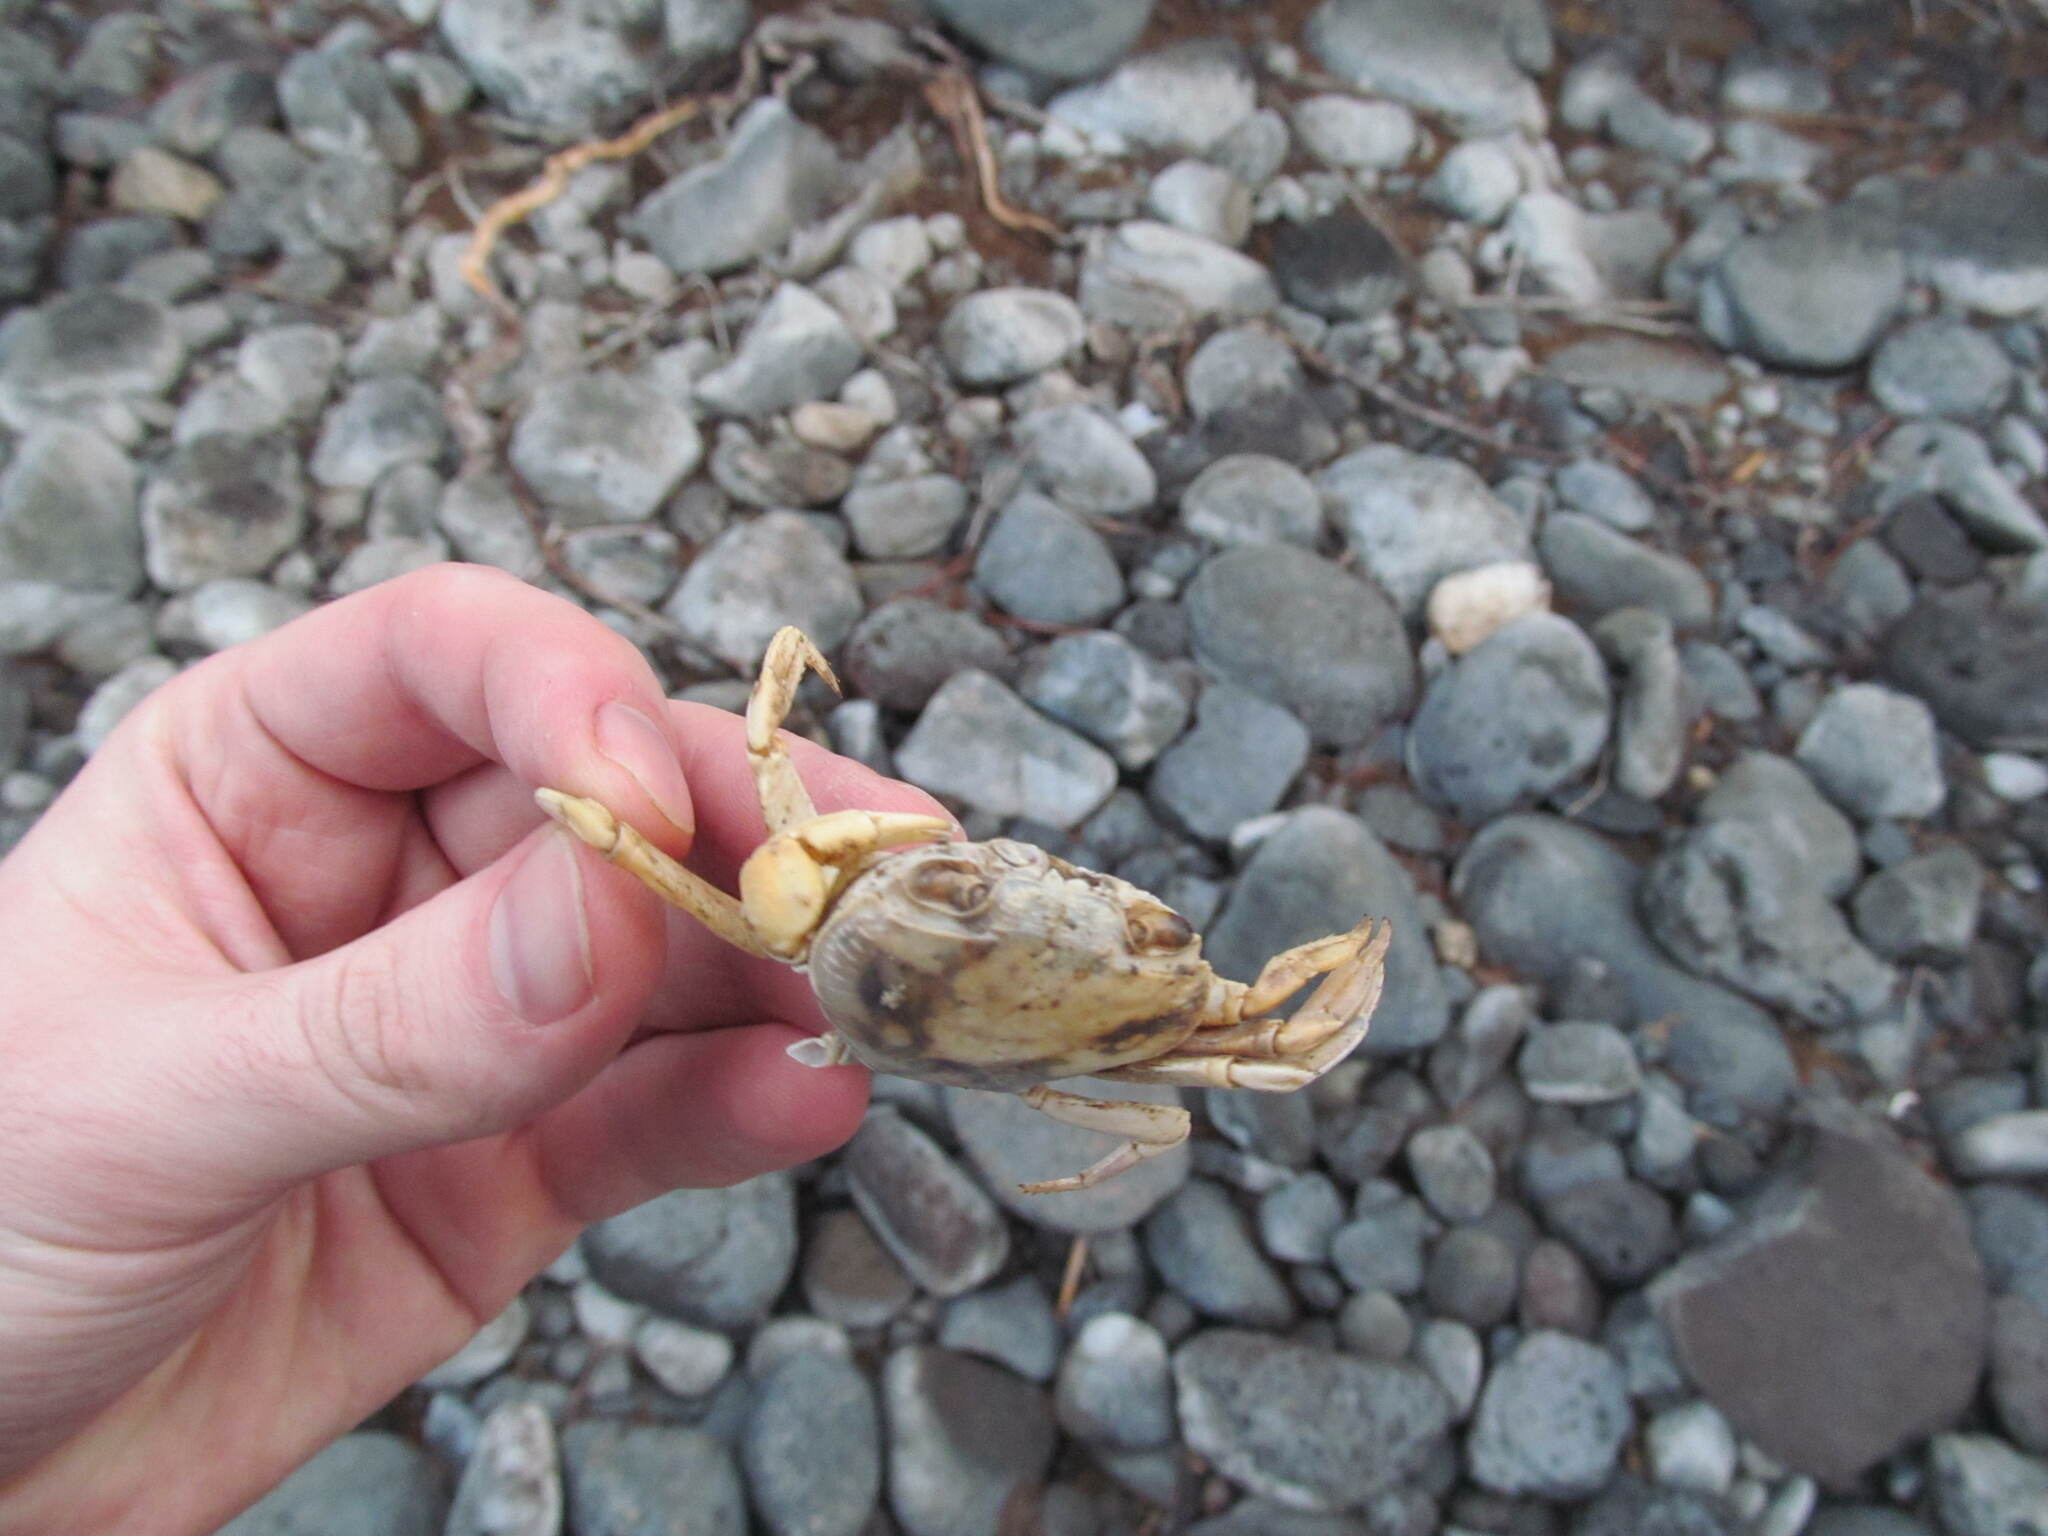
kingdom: Animalia
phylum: Arthropoda
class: Malacostraca
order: Decapoda
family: Potamidae
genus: Potamon
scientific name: Potamon potamios
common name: Aegean freshwater crab
